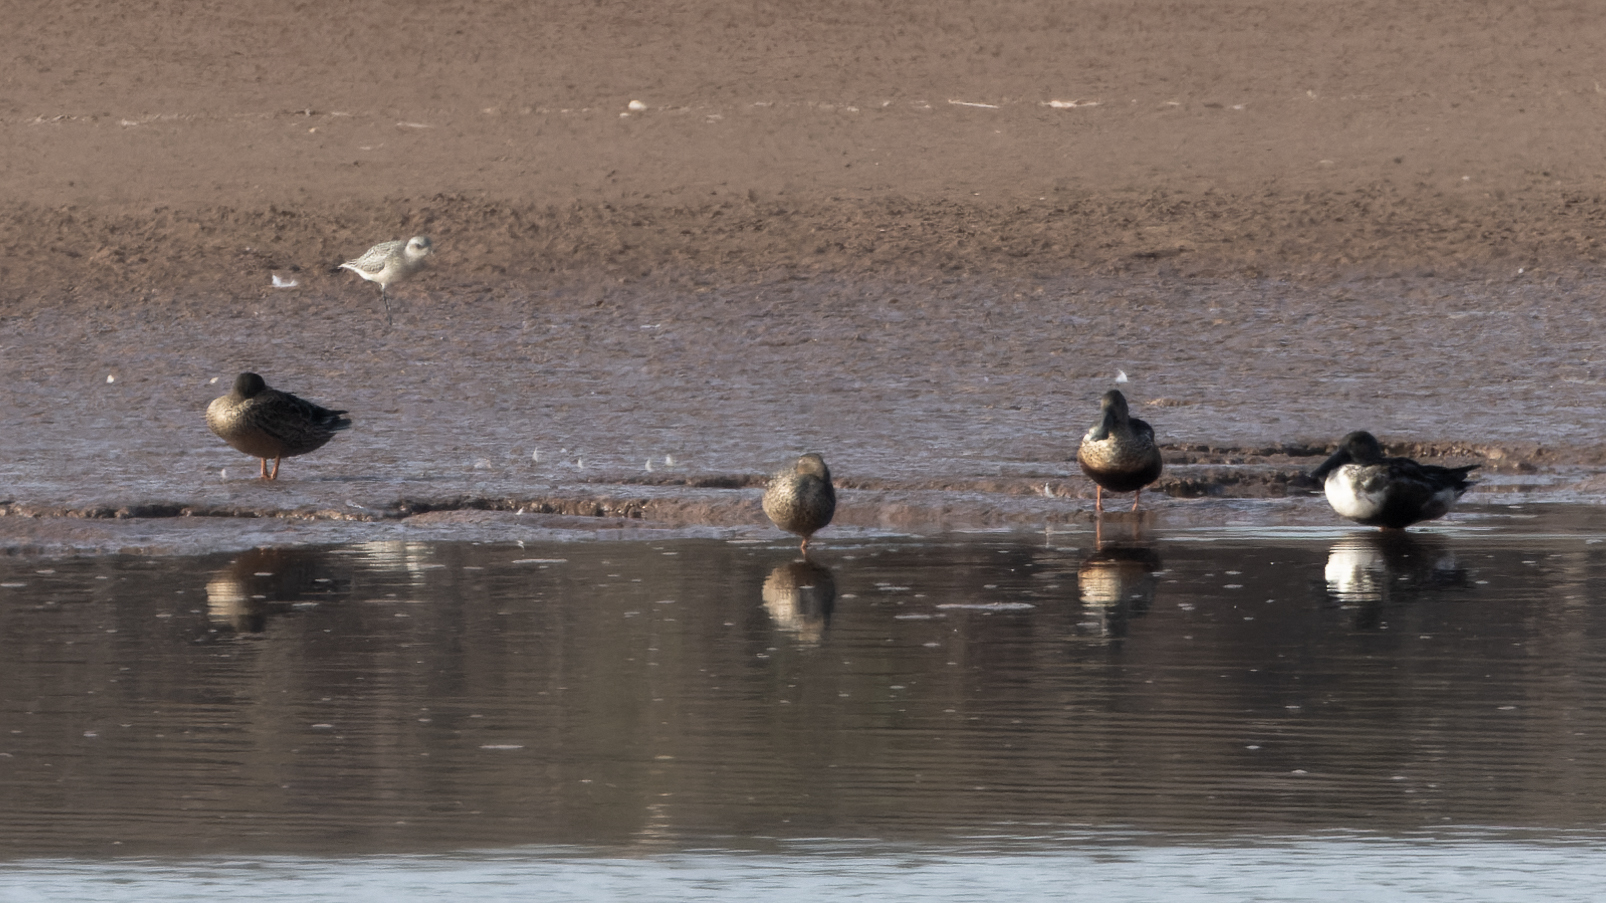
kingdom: Animalia
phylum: Chordata
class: Aves
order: Anseriformes
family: Anatidae
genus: Spatula
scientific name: Spatula clypeata
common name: Northern shoveler
